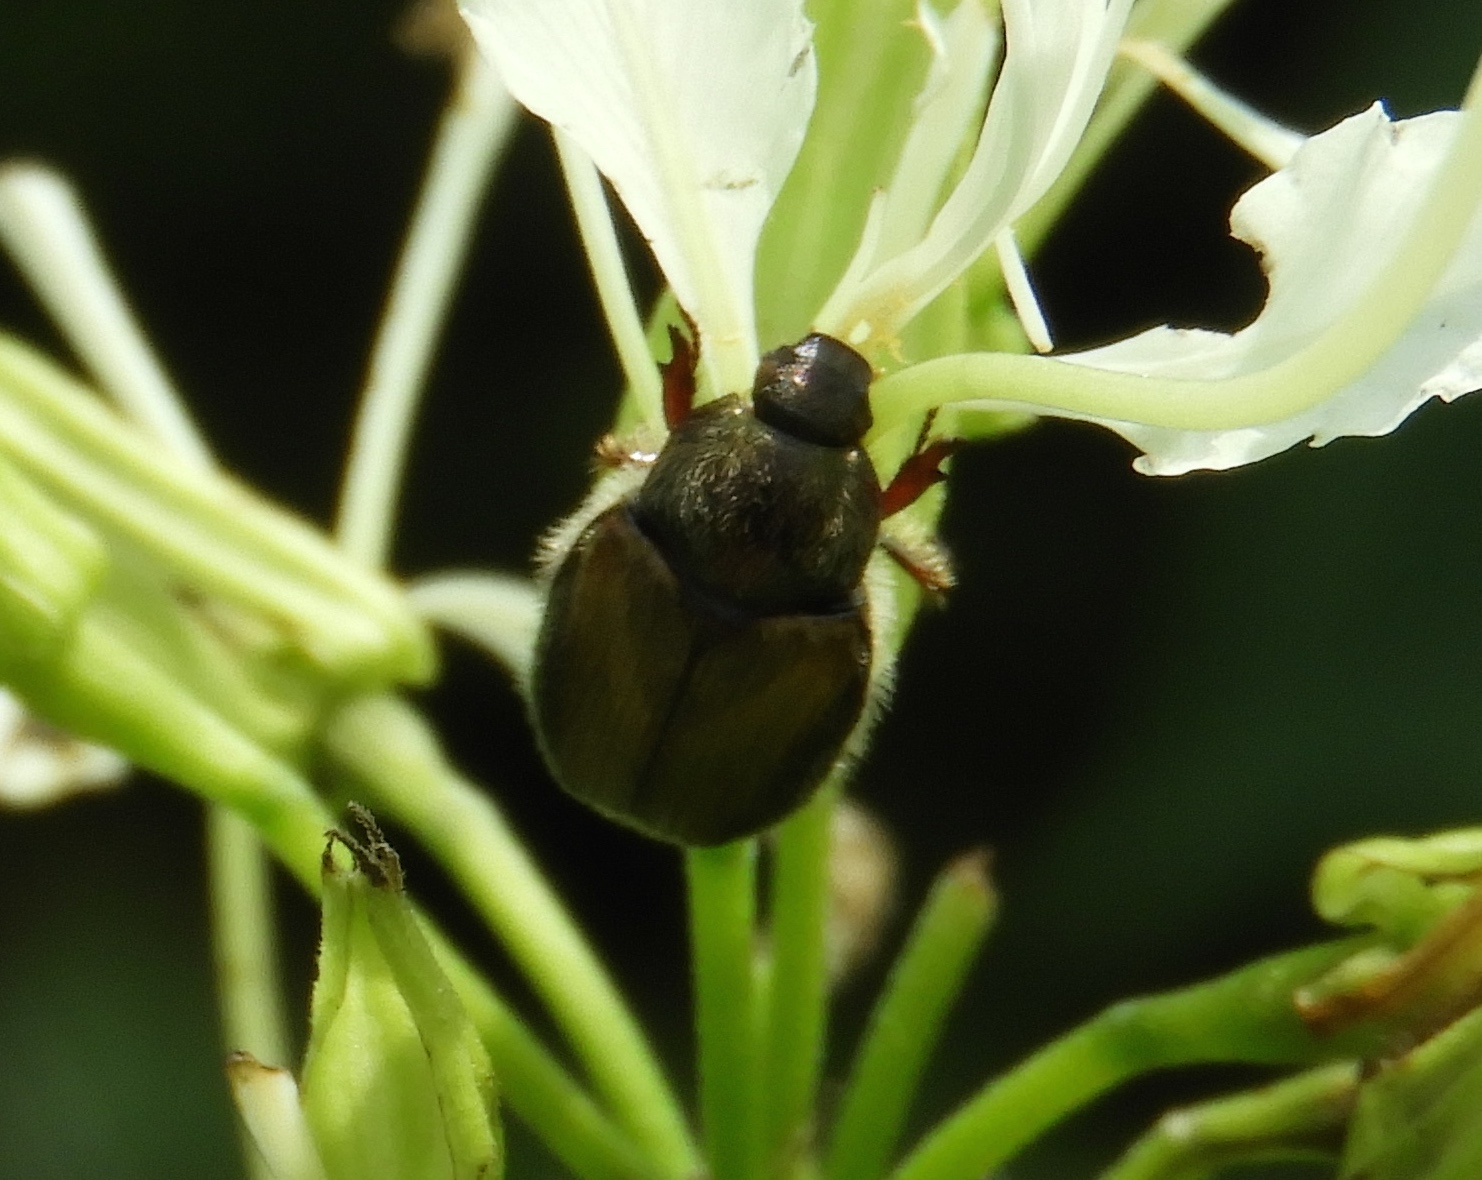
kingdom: Animalia
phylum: Arthropoda
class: Insecta
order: Coleoptera
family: Scarabaeidae
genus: Strigoderma
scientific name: Strigoderma
